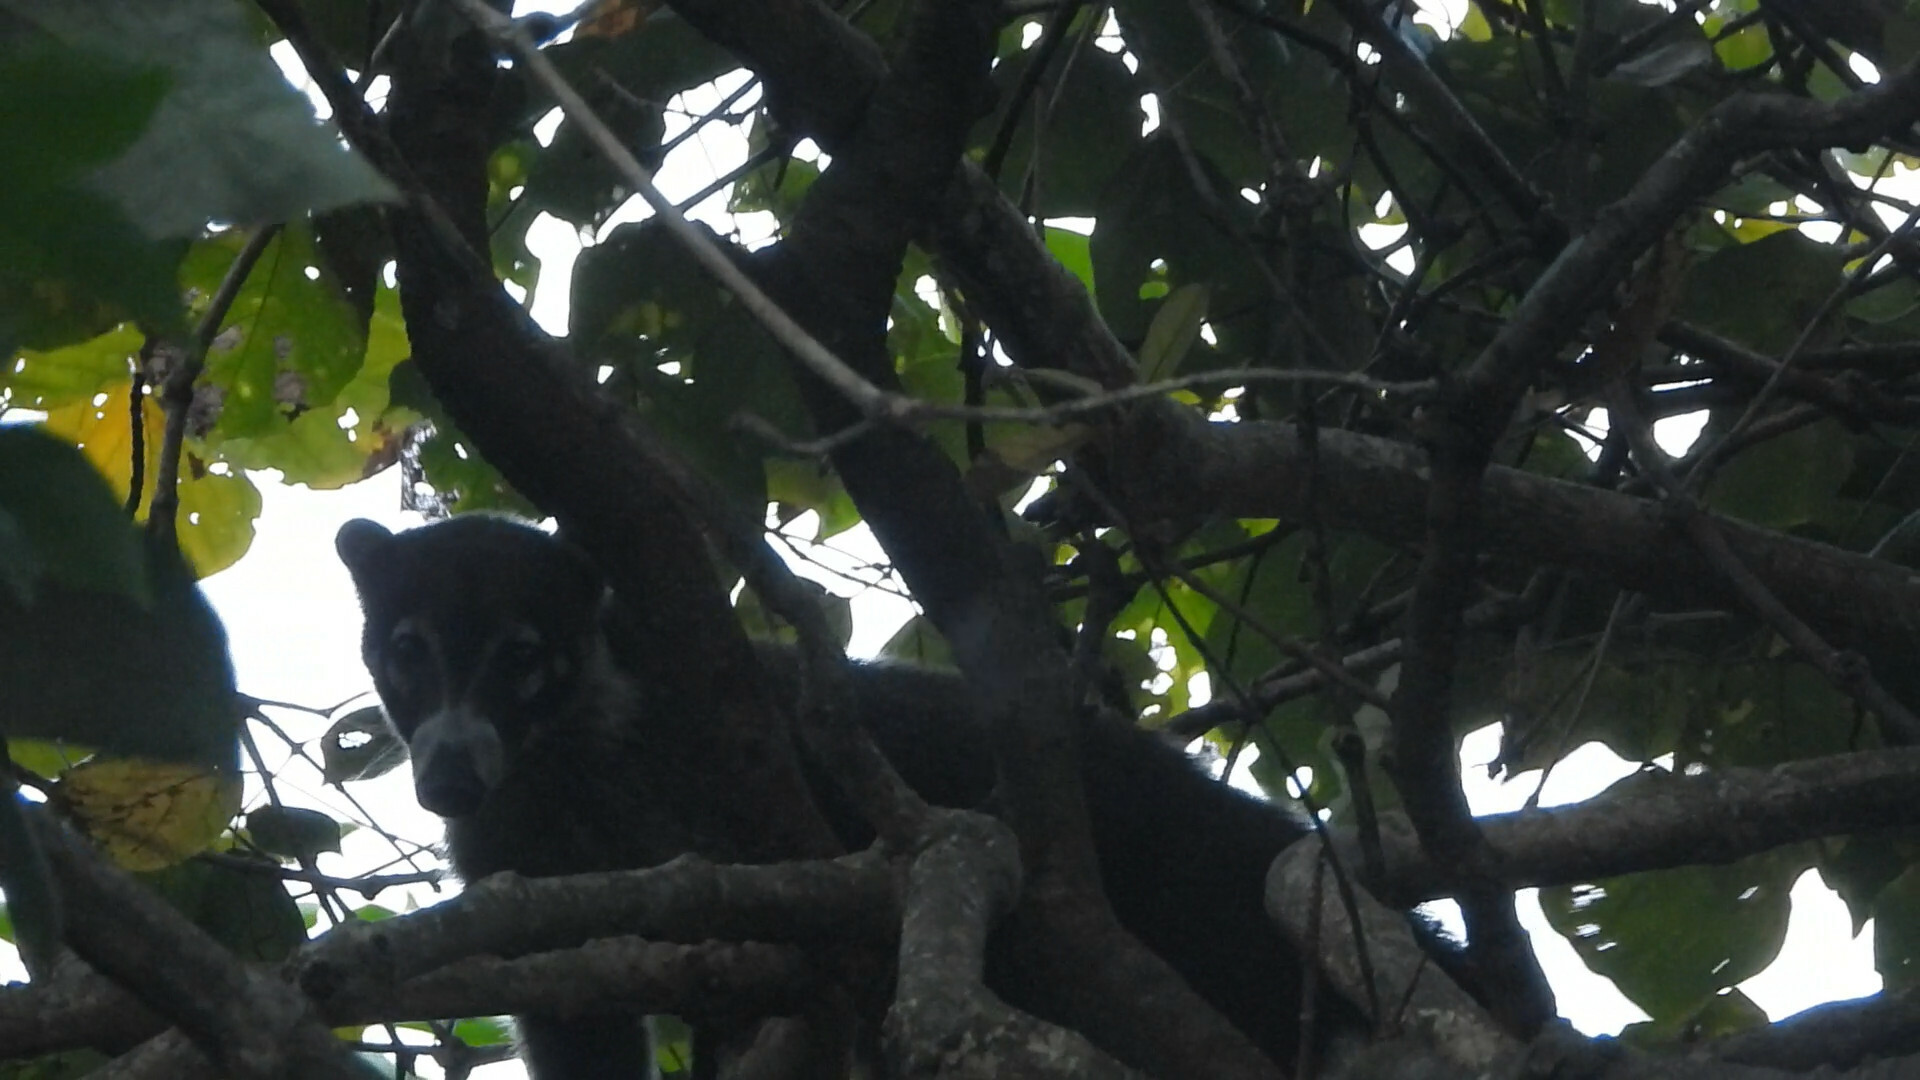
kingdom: Animalia
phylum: Chordata
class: Mammalia
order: Carnivora
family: Procyonidae
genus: Nasua
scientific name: Nasua narica
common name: White-nosed coati
